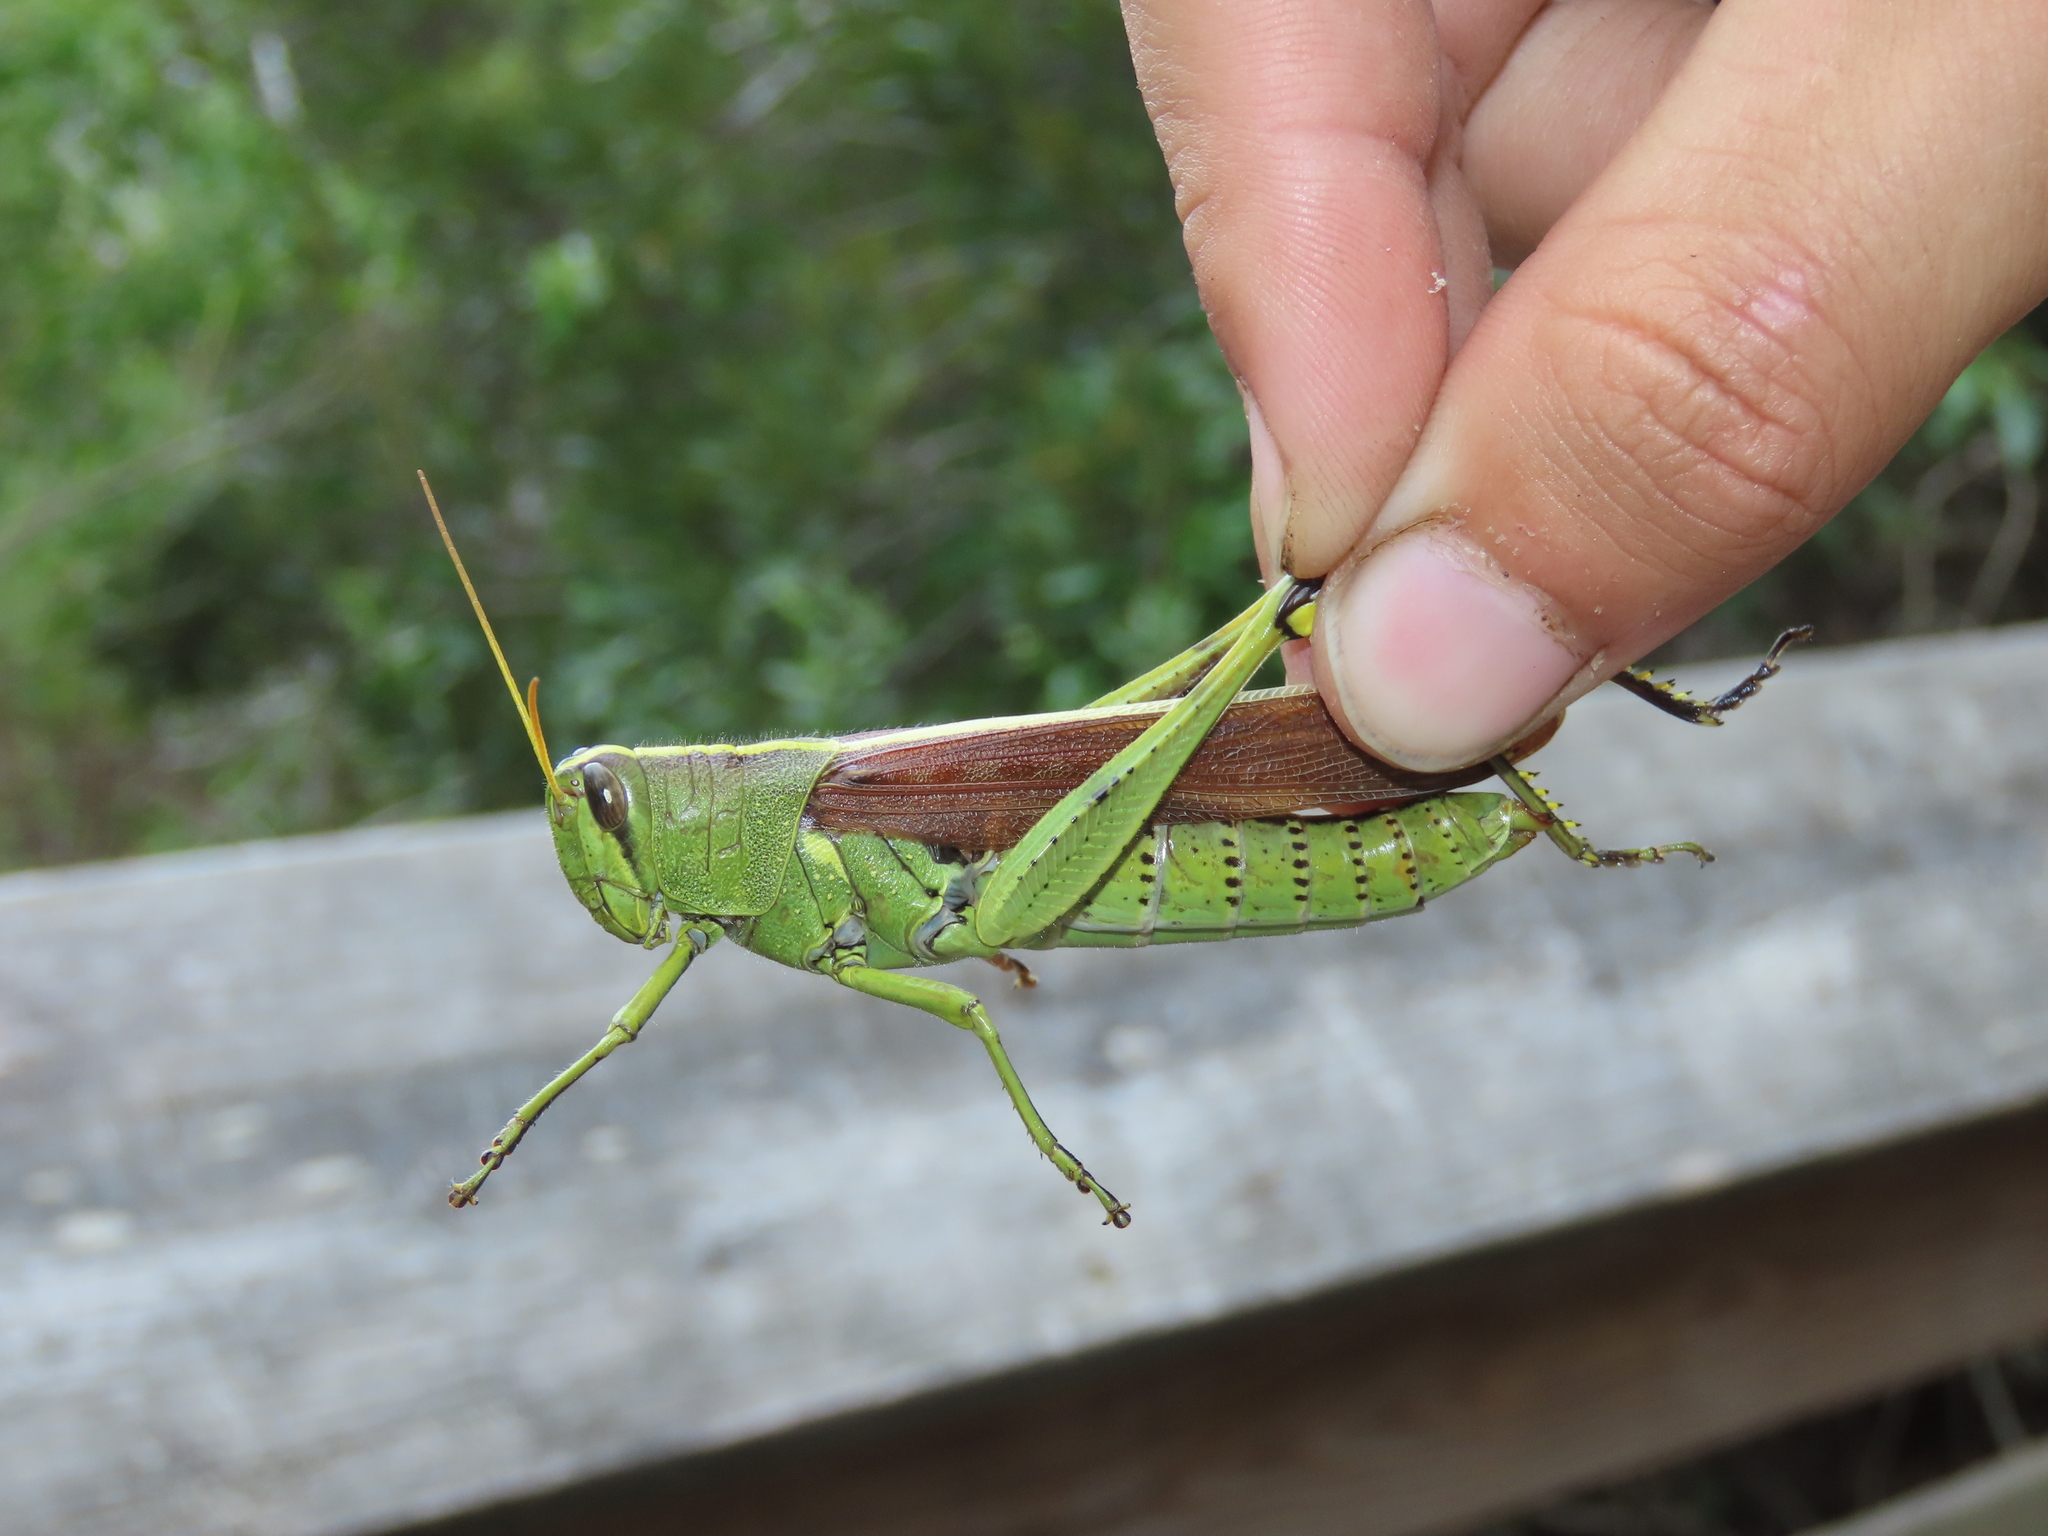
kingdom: Animalia
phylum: Arthropoda
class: Insecta
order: Orthoptera
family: Acrididae
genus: Schistocerca
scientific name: Schistocerca obscura
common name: Obscure bird grasshopper
